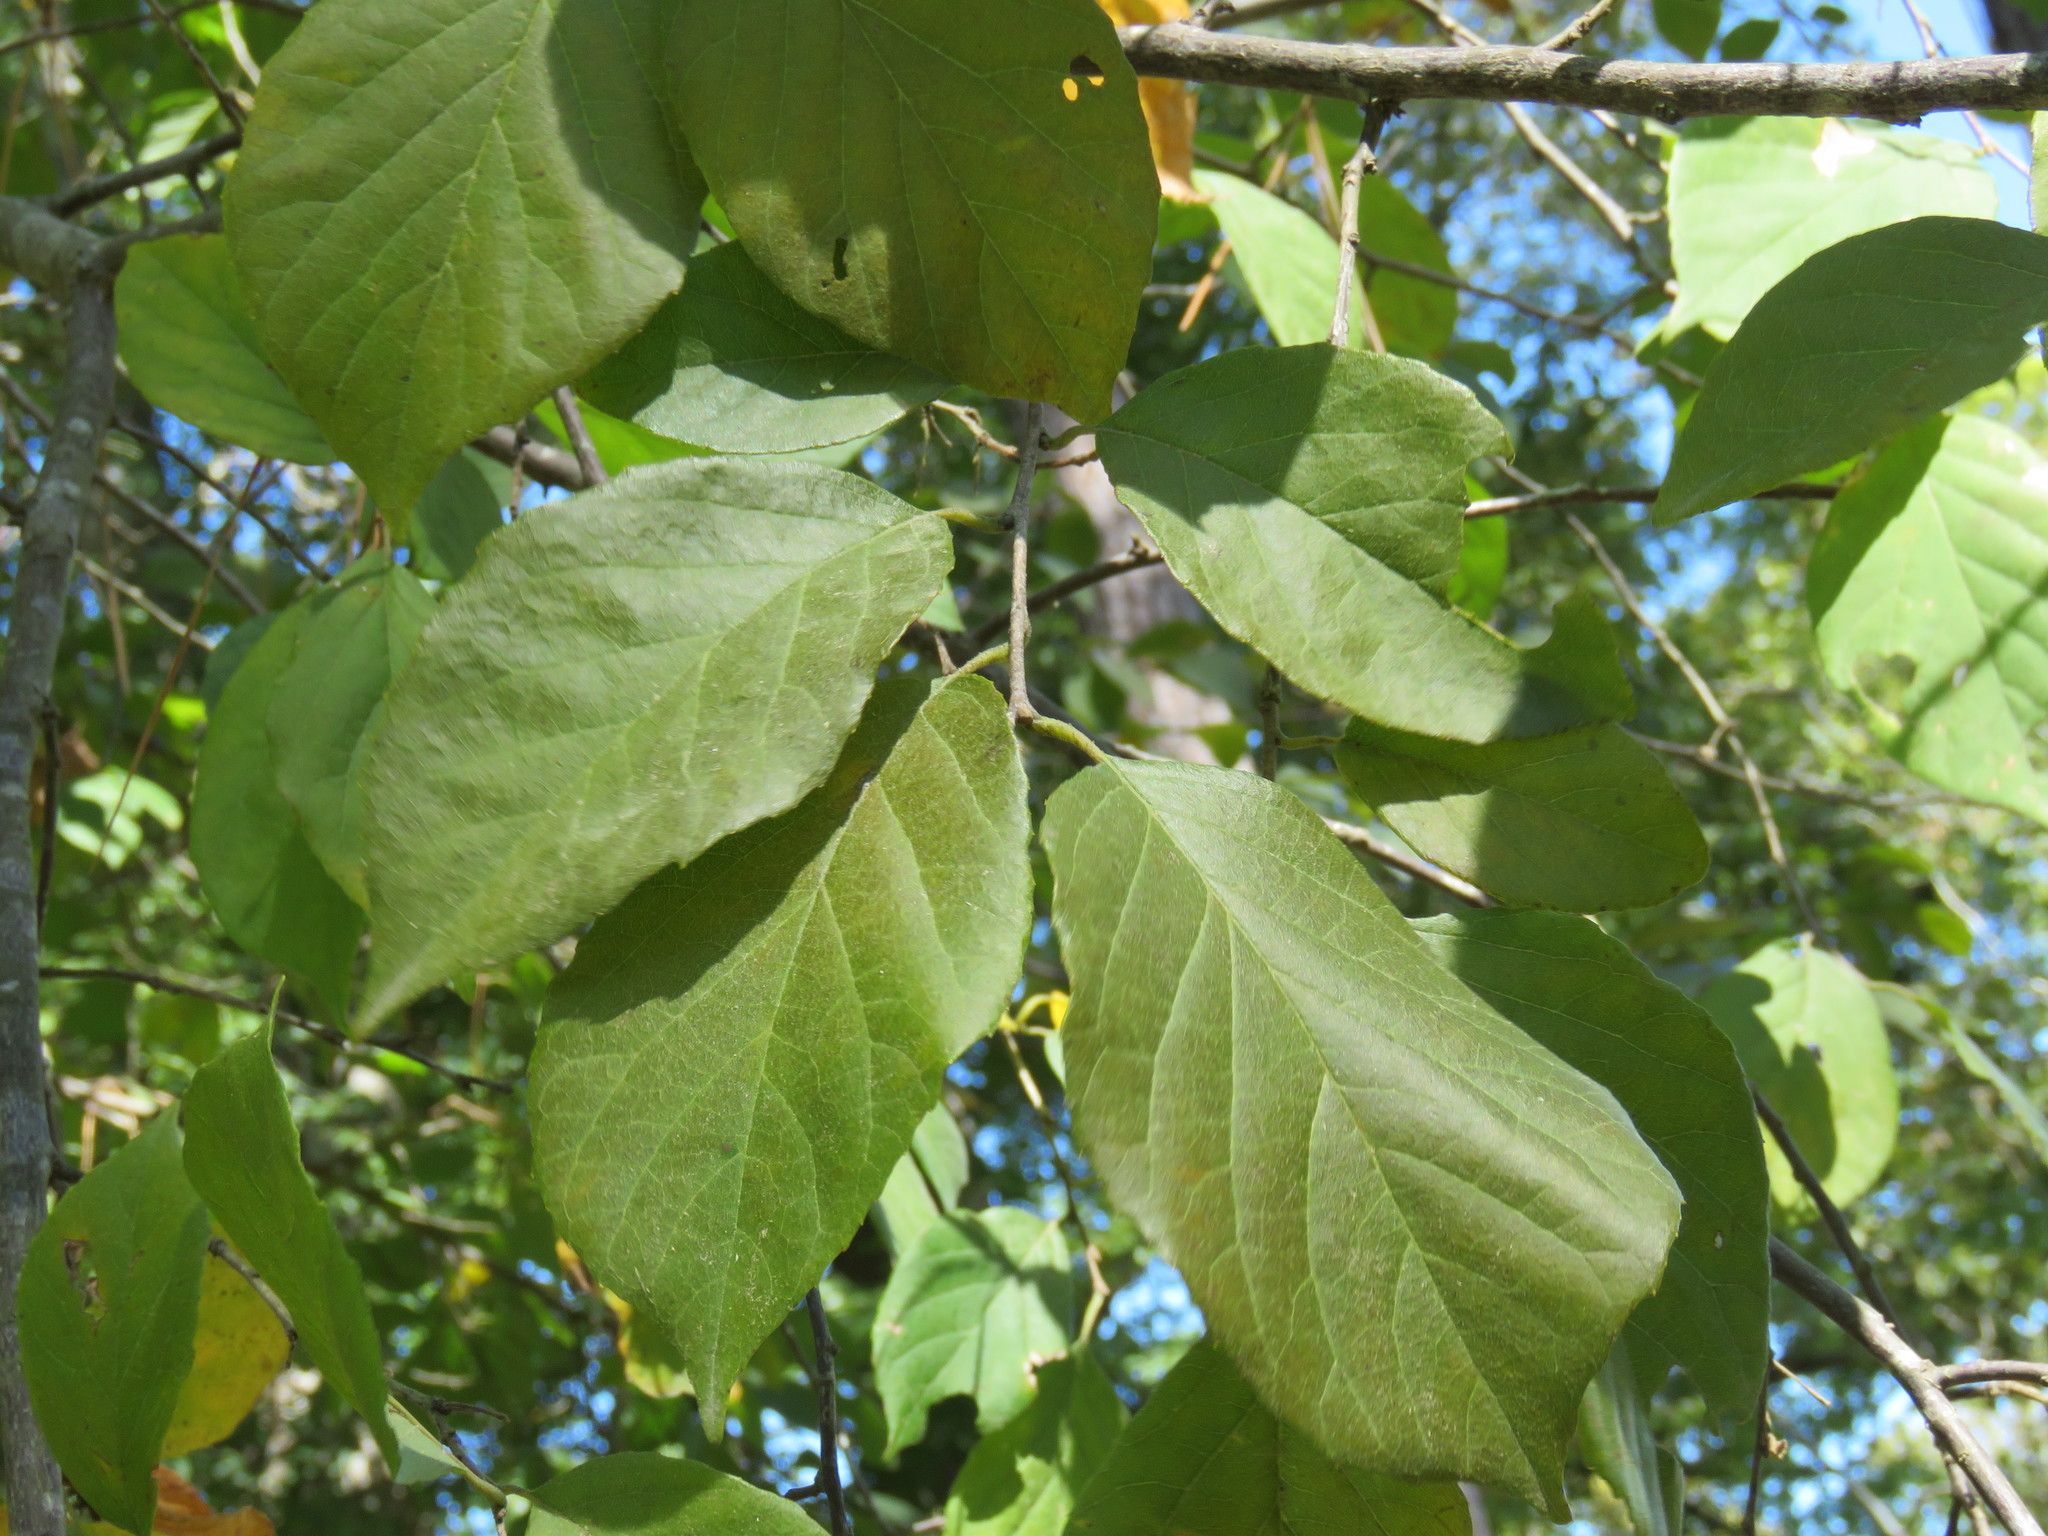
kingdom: Plantae
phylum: Tracheophyta
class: Magnoliopsida
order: Ericales
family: Styracaceae
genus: Halesia
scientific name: Halesia diptera
